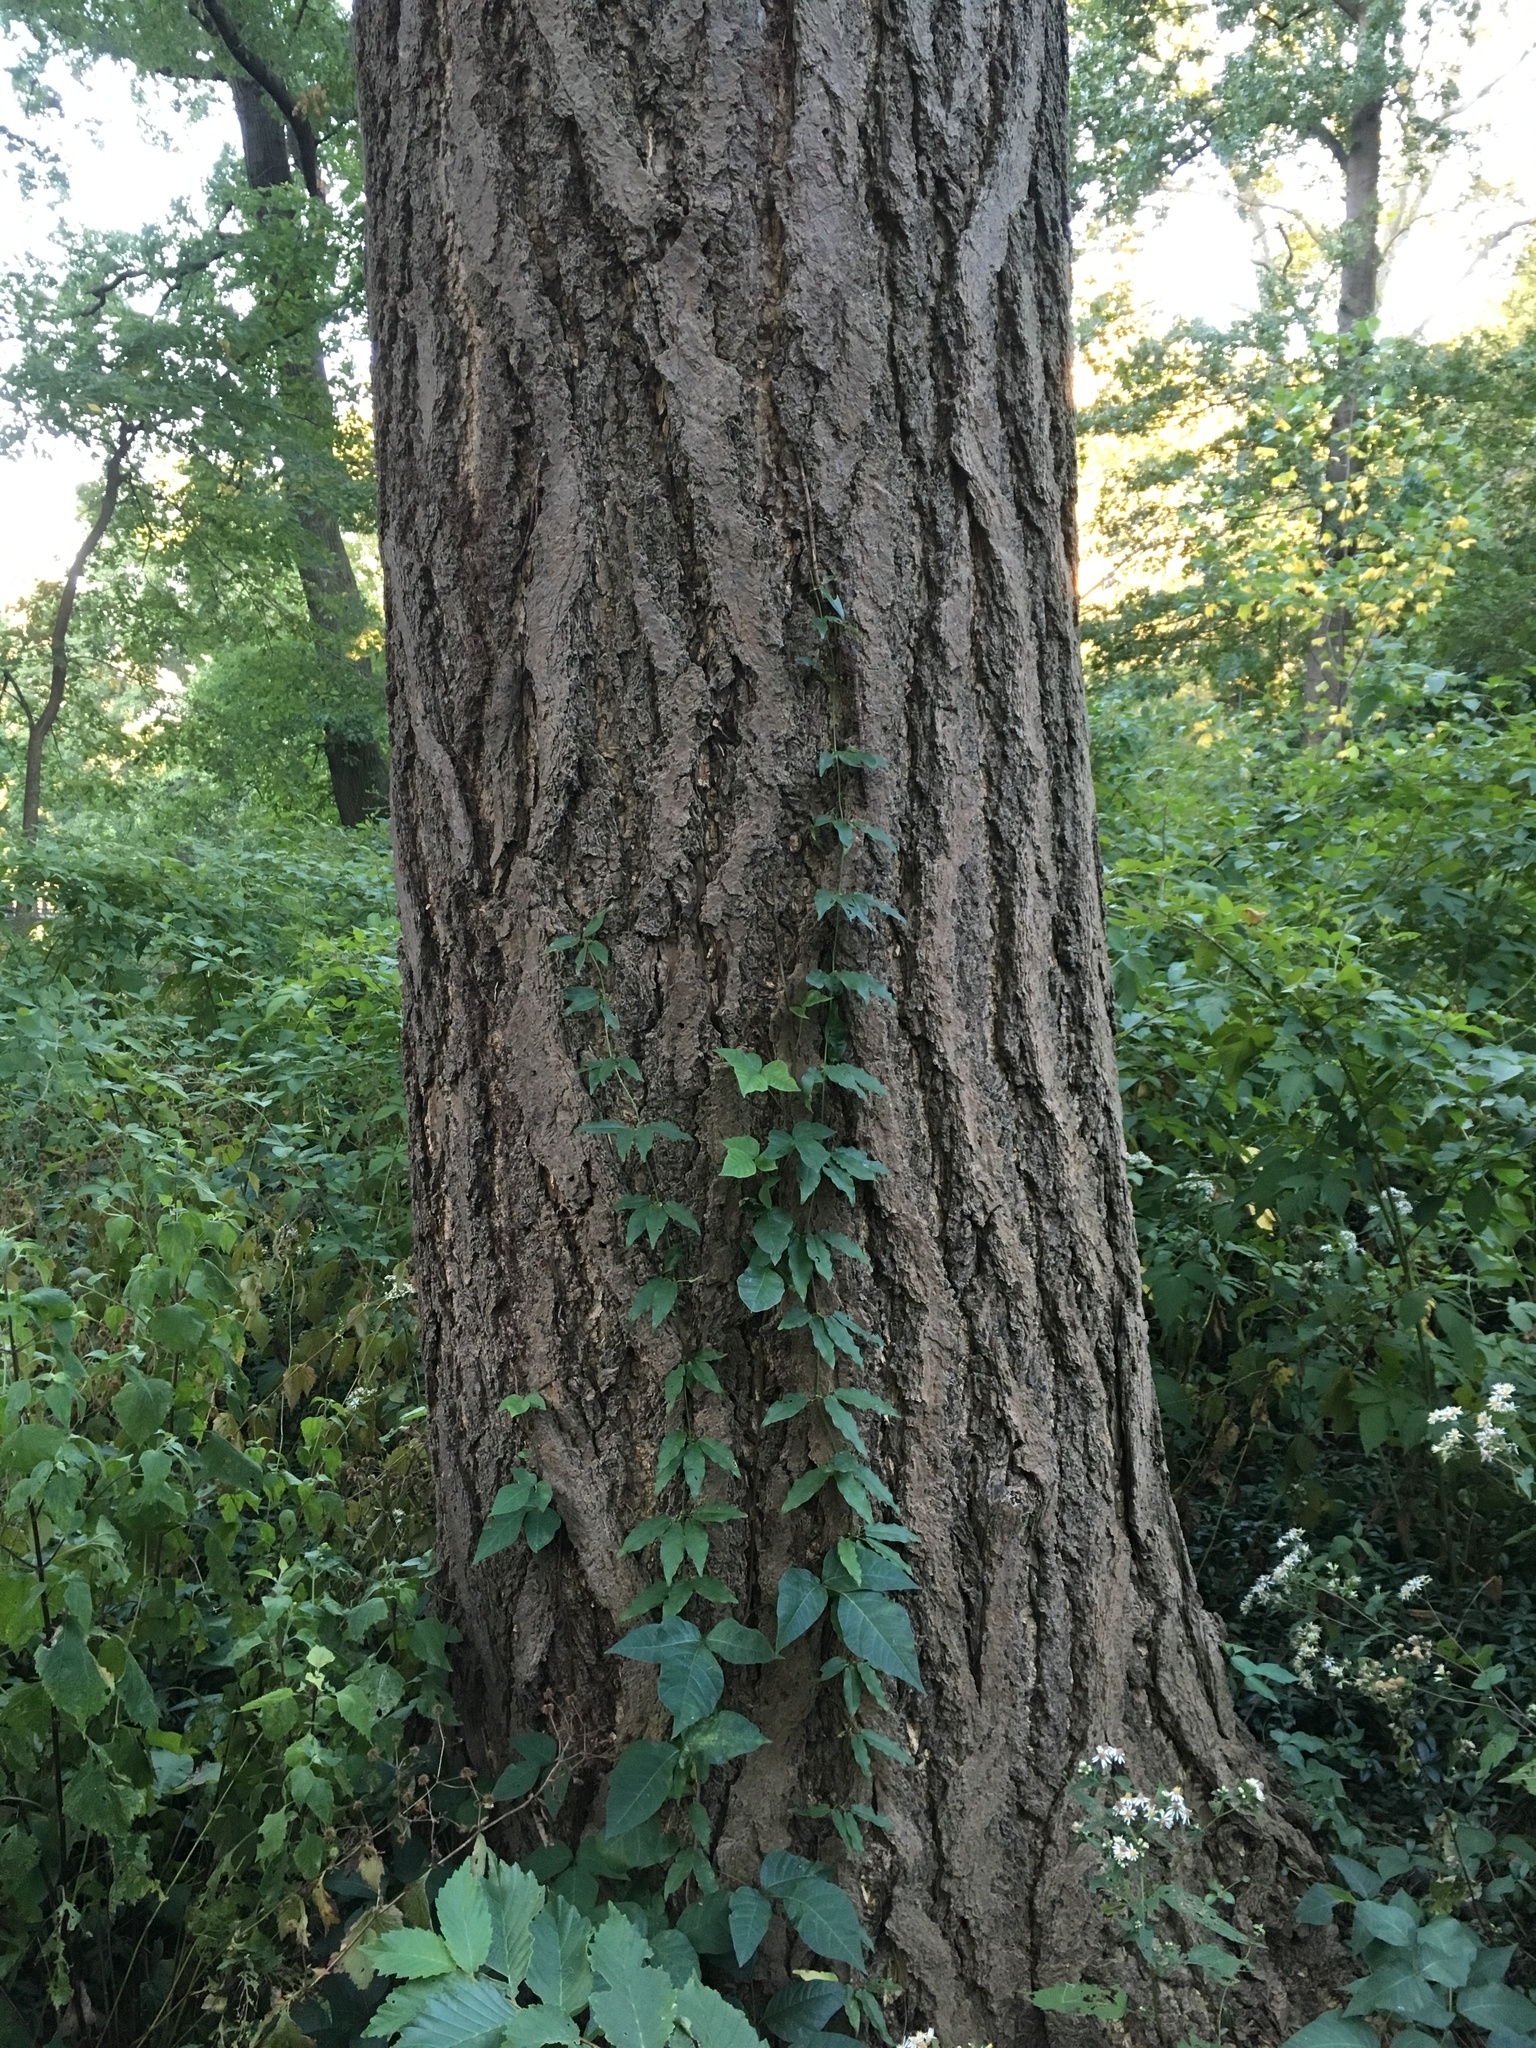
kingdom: Plantae
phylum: Tracheophyta
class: Magnoliopsida
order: Lamiales
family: Bignoniaceae
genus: Bignonia
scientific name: Bignonia capreolata
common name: Crossvine
